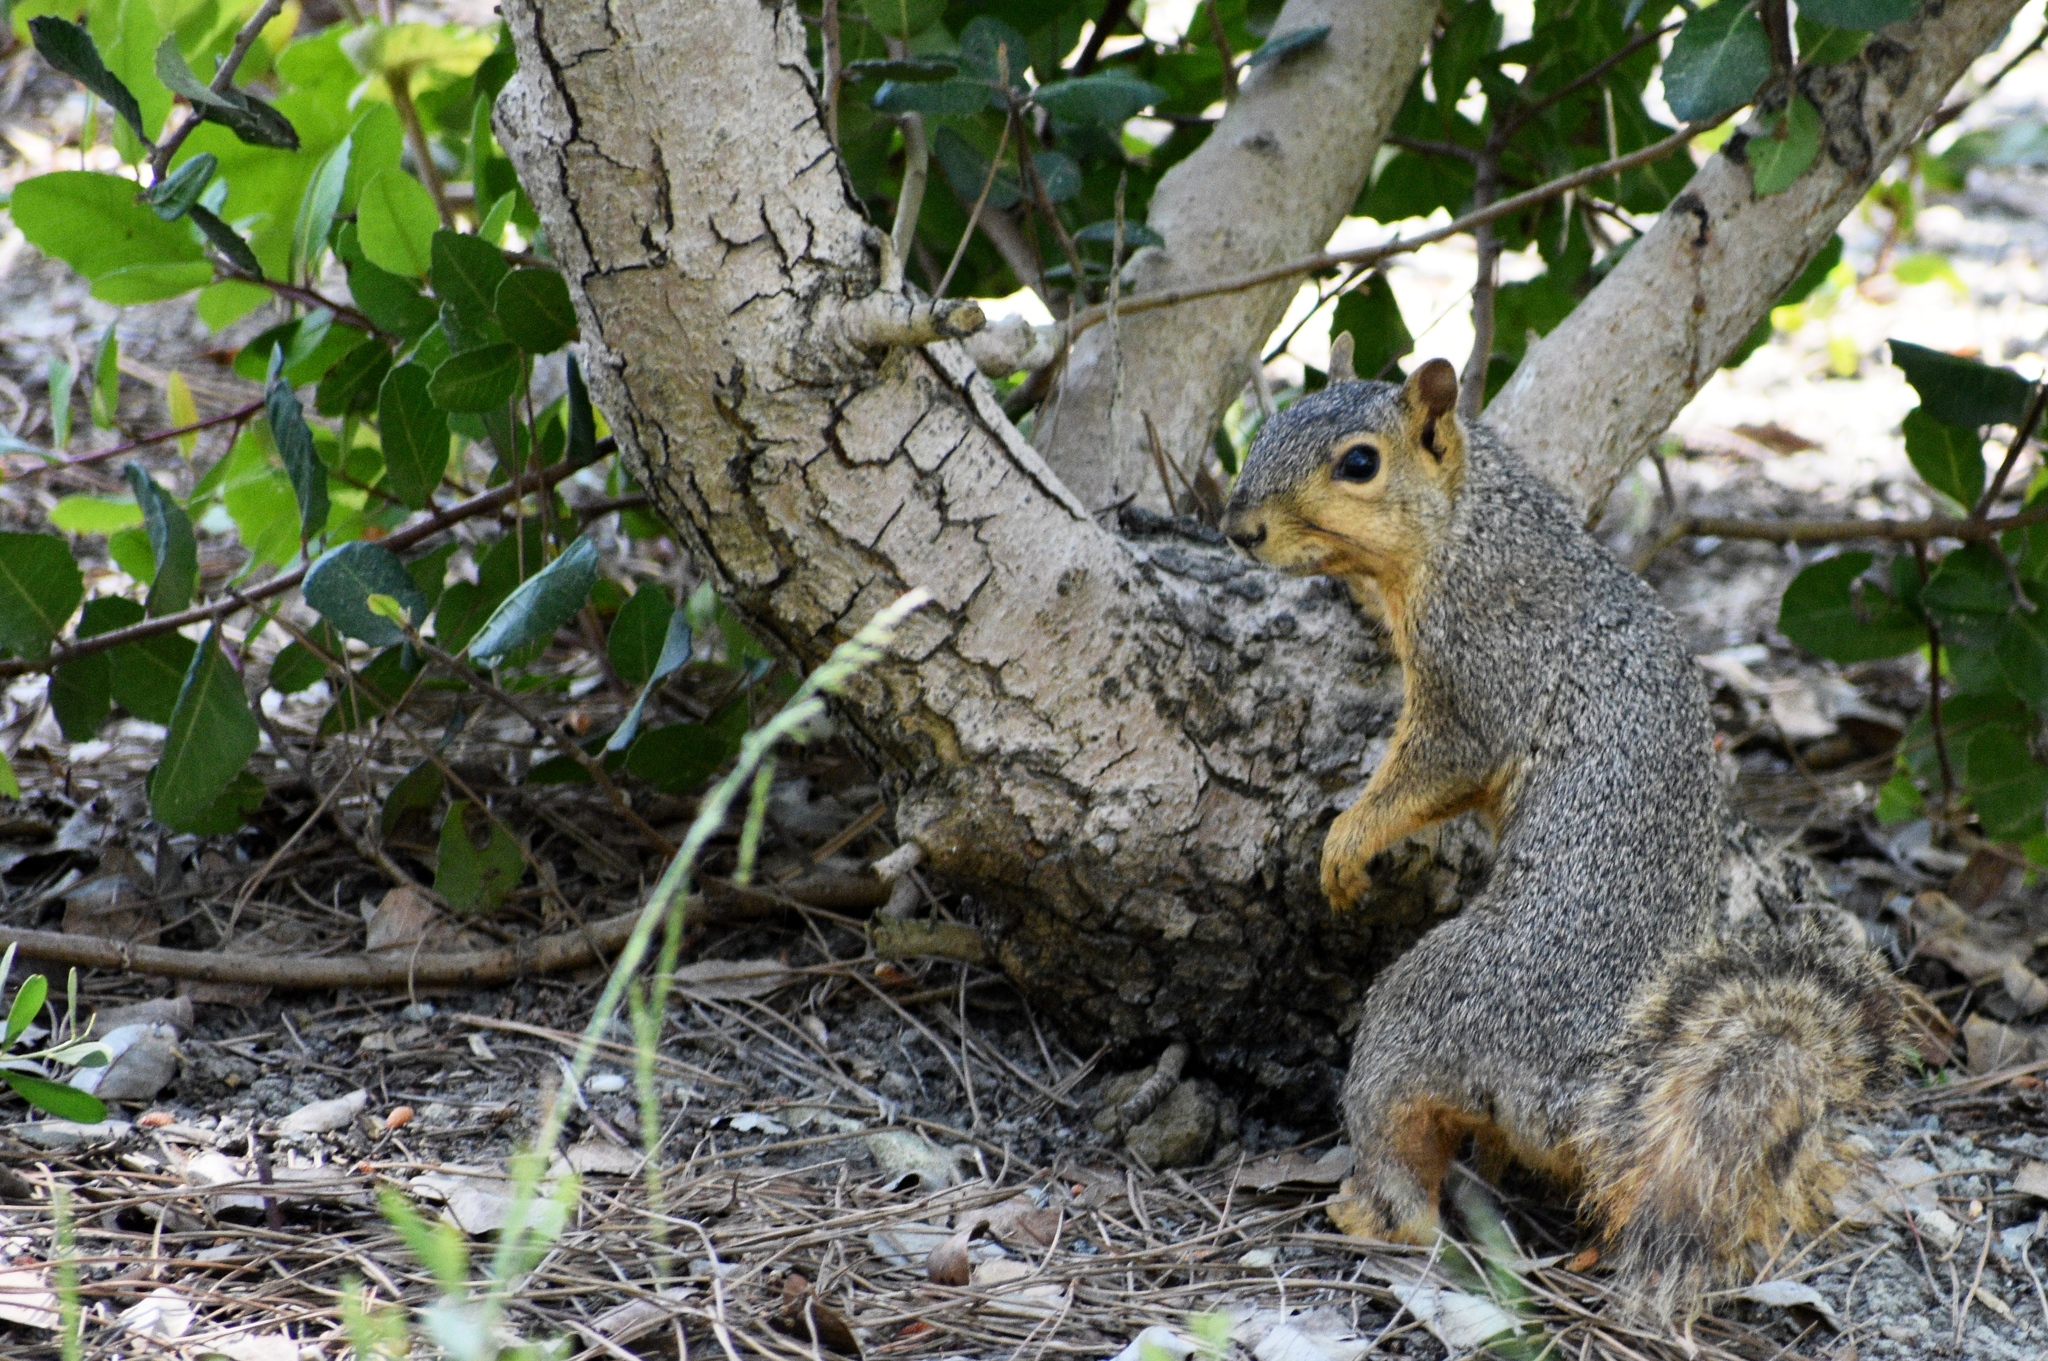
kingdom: Animalia
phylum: Chordata
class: Mammalia
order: Rodentia
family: Sciuridae
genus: Sciurus
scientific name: Sciurus niger
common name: Fox squirrel
